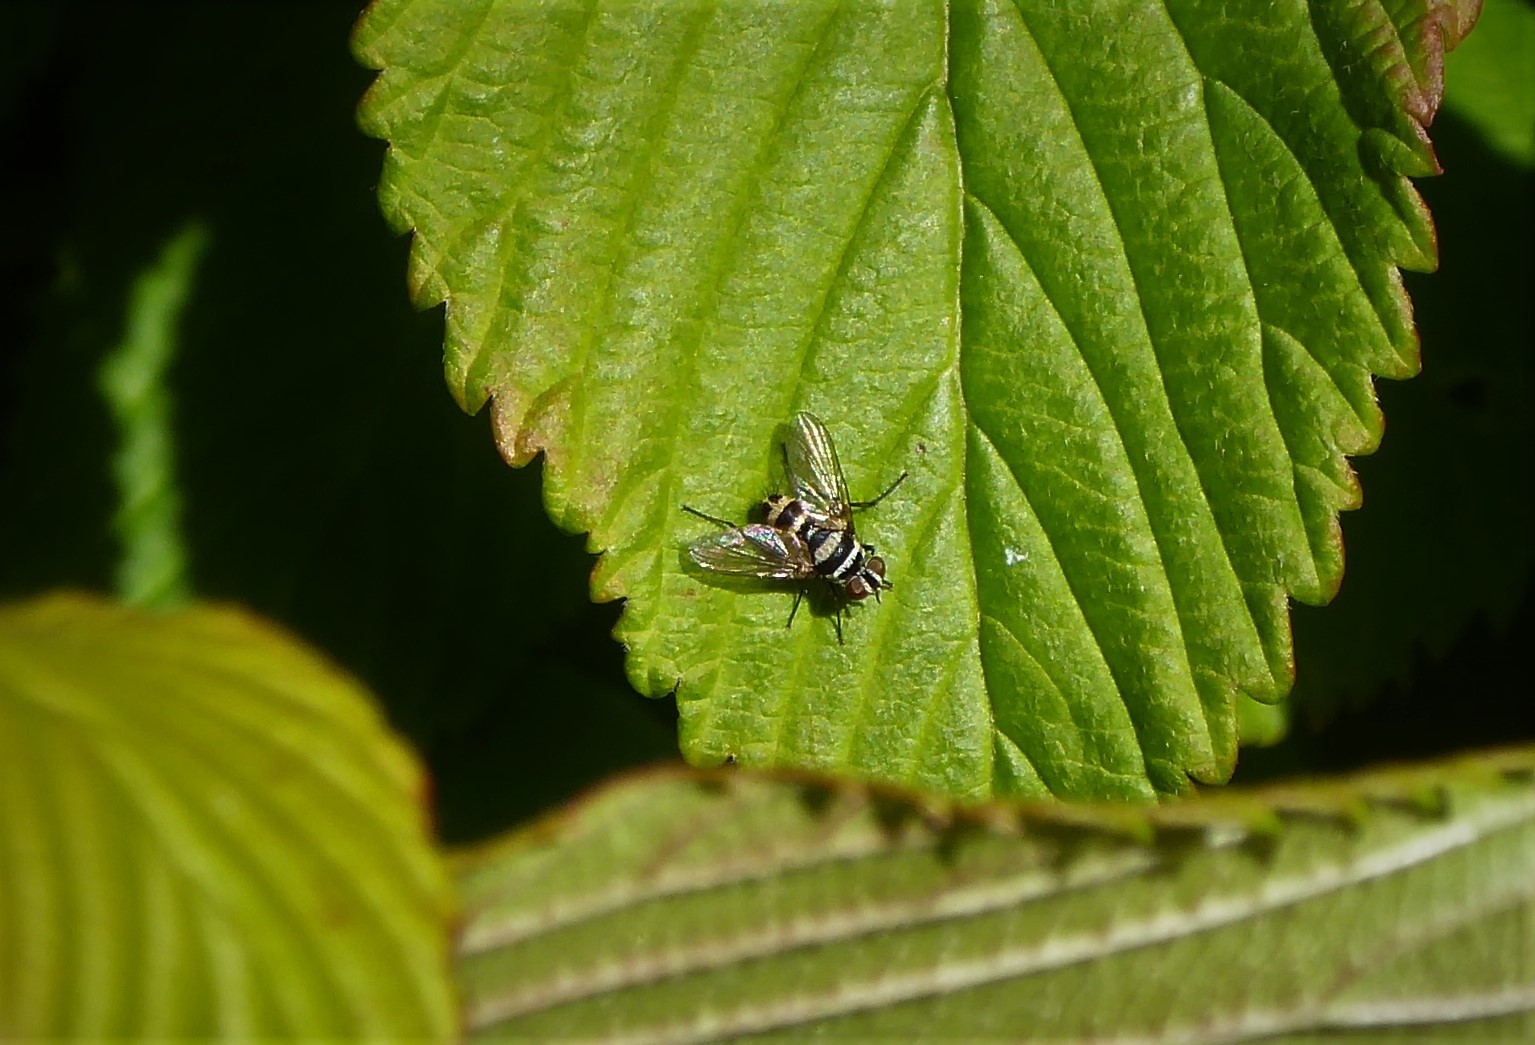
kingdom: Animalia
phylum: Arthropoda
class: Insecta
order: Diptera
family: Tachinidae
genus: Trigonospila
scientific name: Trigonospila brevifacies
